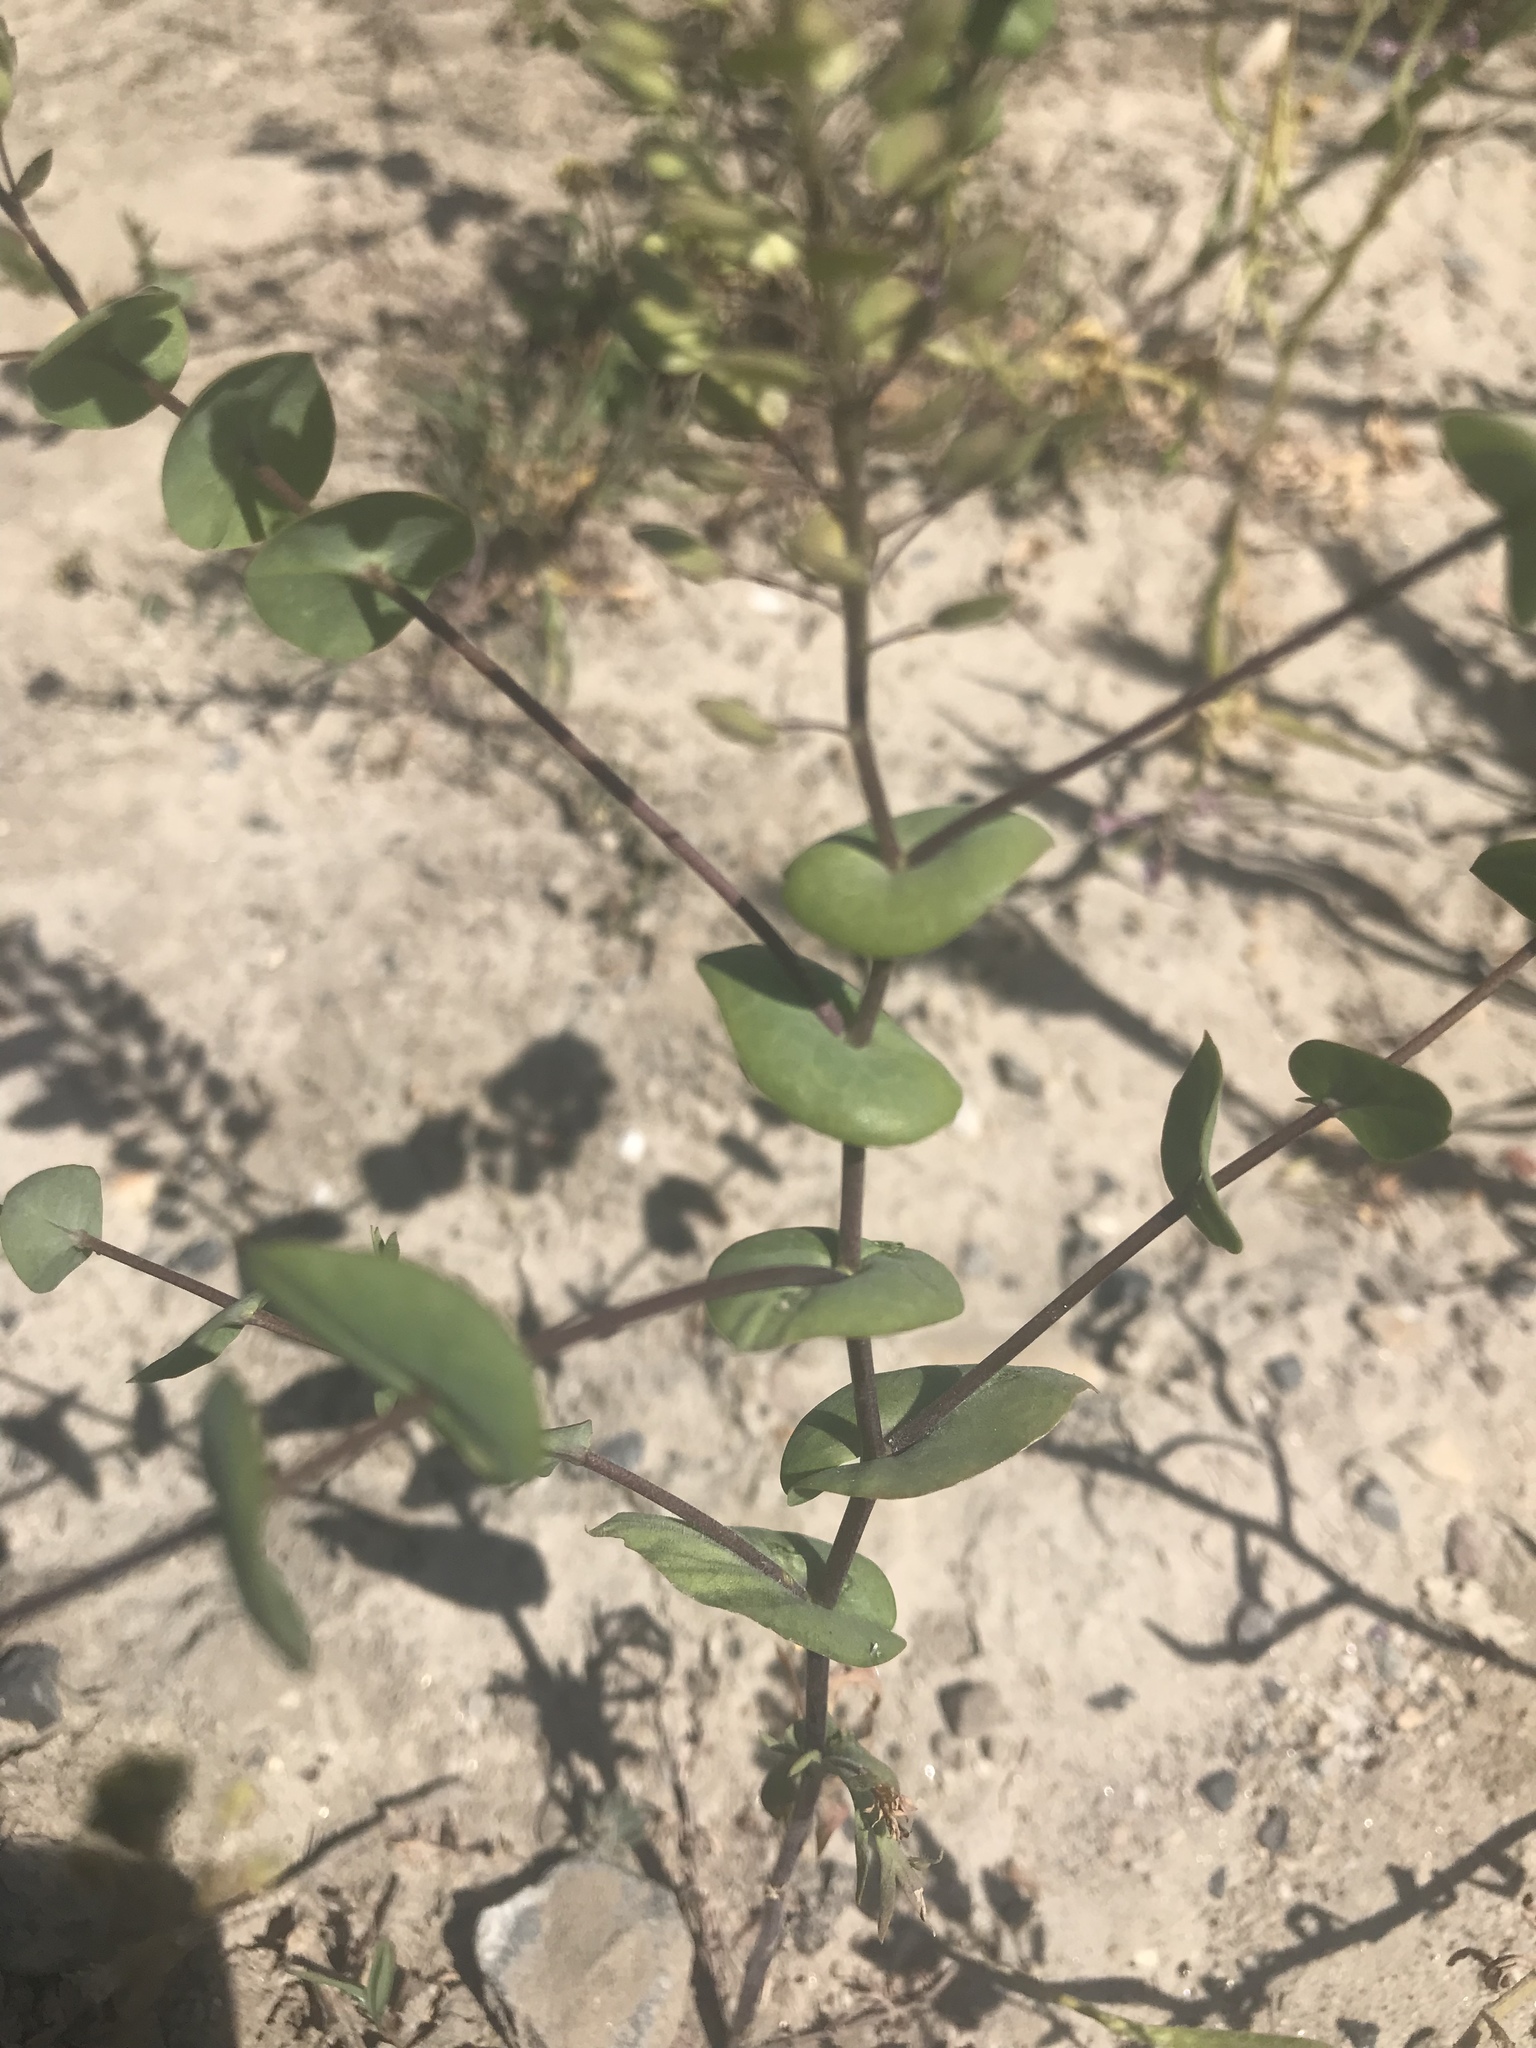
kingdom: Plantae
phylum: Tracheophyta
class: Magnoliopsida
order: Brassicales
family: Brassicaceae
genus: Lepidium
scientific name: Lepidium perfoliatum
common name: Perfoliate pepperwort
